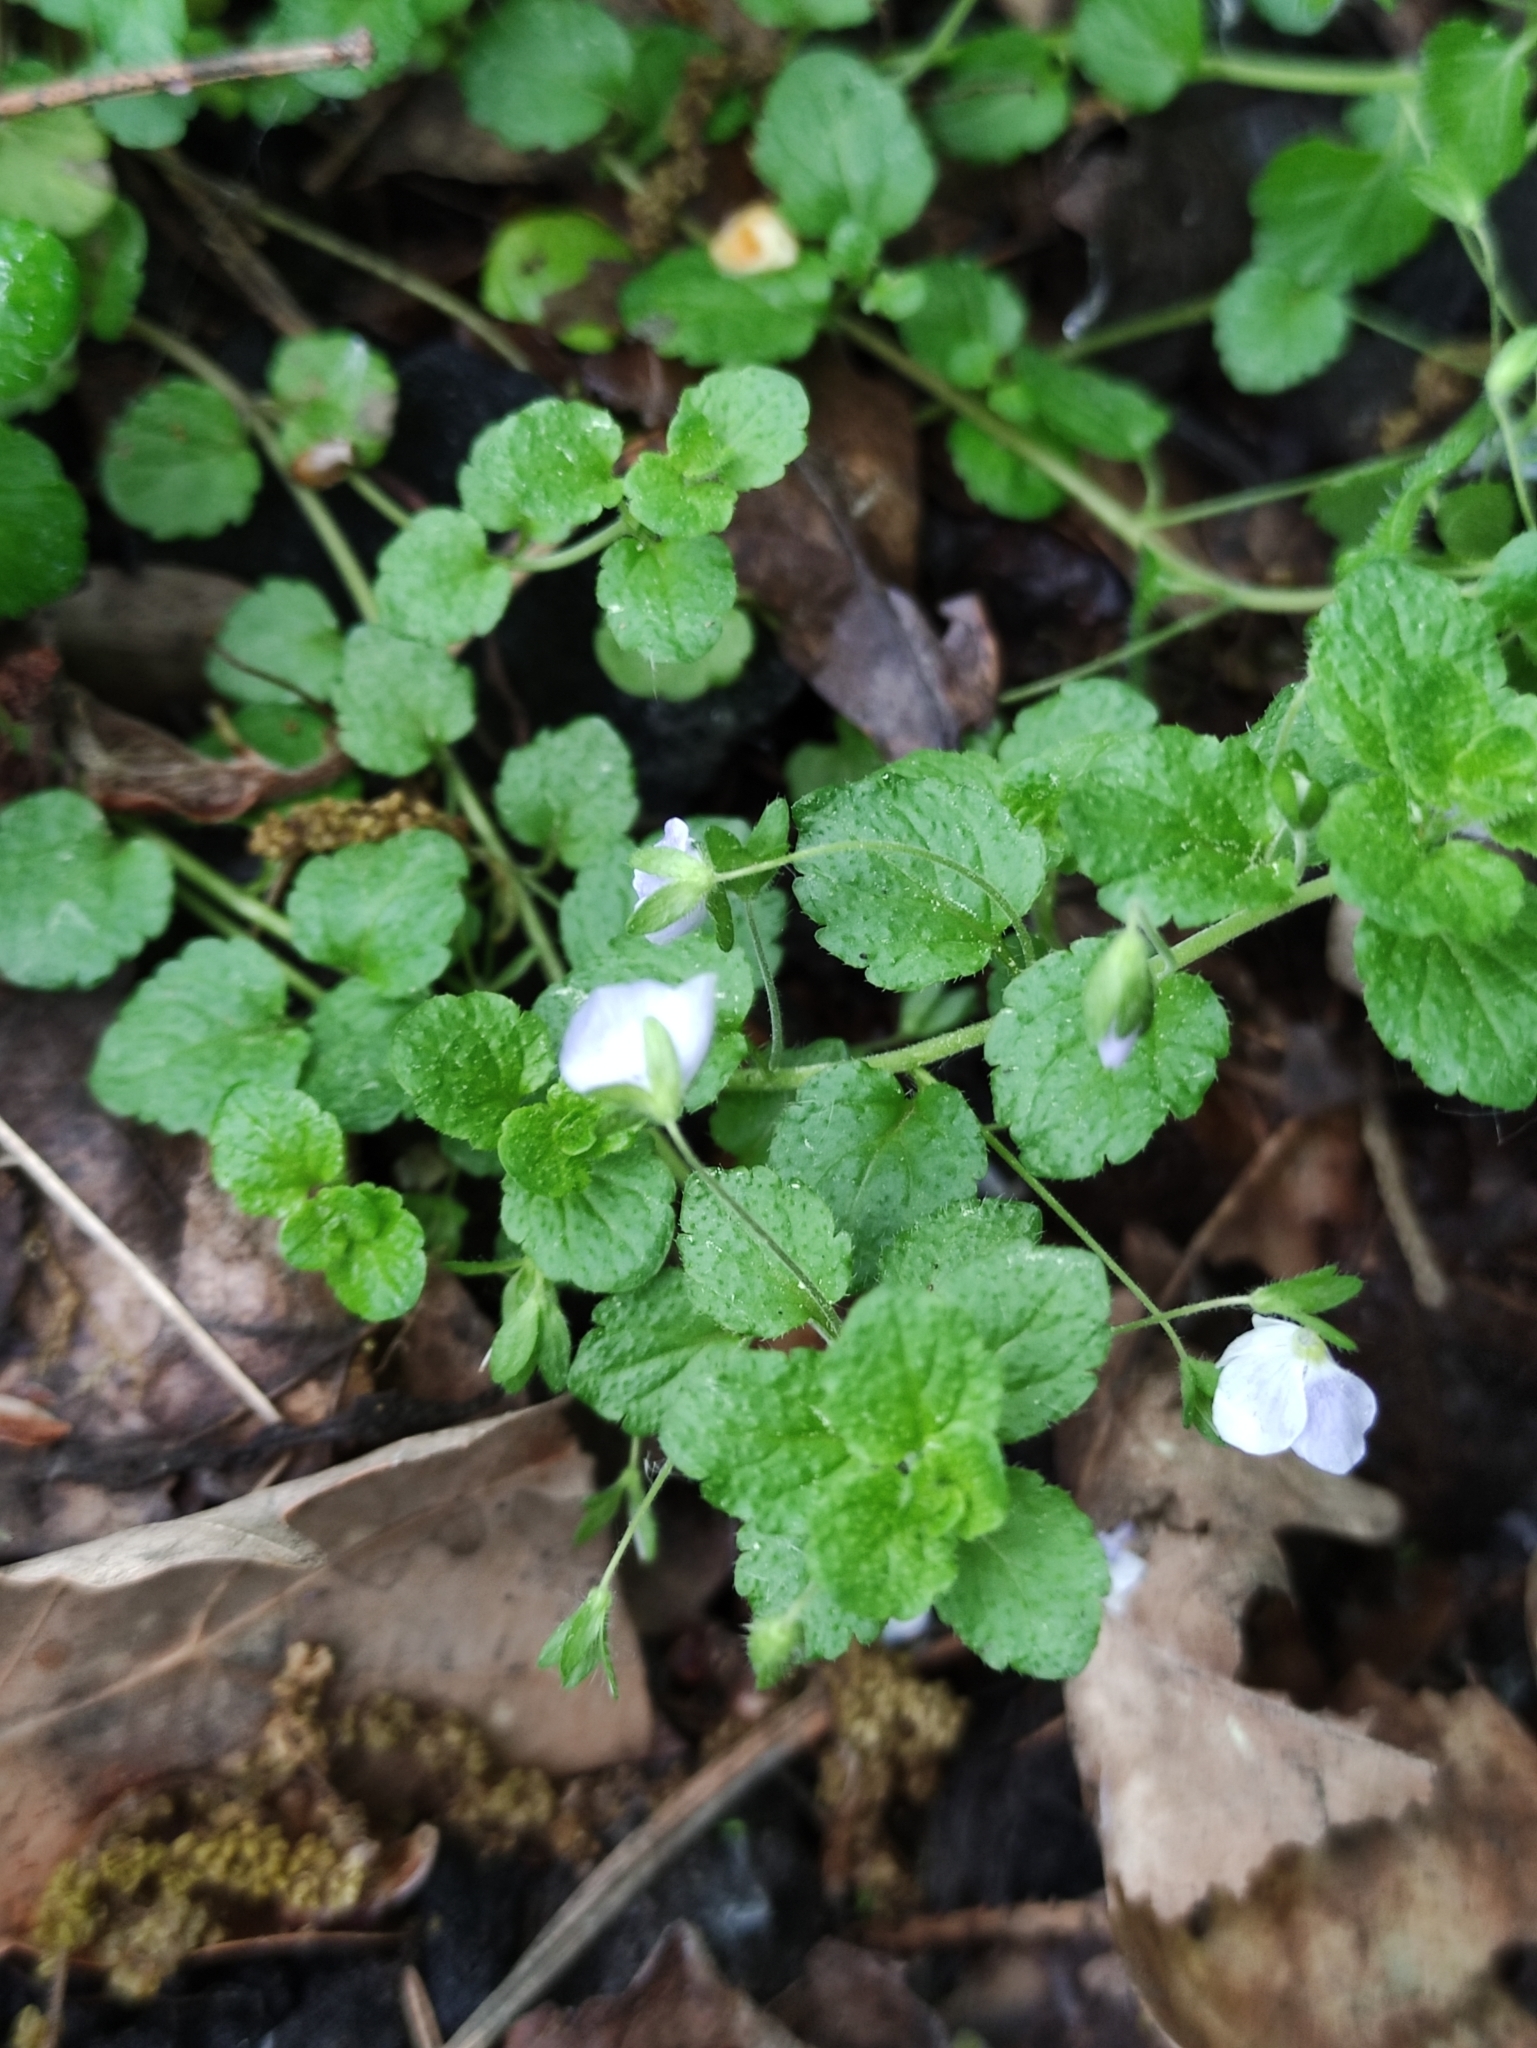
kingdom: Plantae
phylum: Tracheophyta
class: Magnoliopsida
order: Lamiales
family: Plantaginaceae
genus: Veronica
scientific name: Veronica filiformis
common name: Slender speedwell
